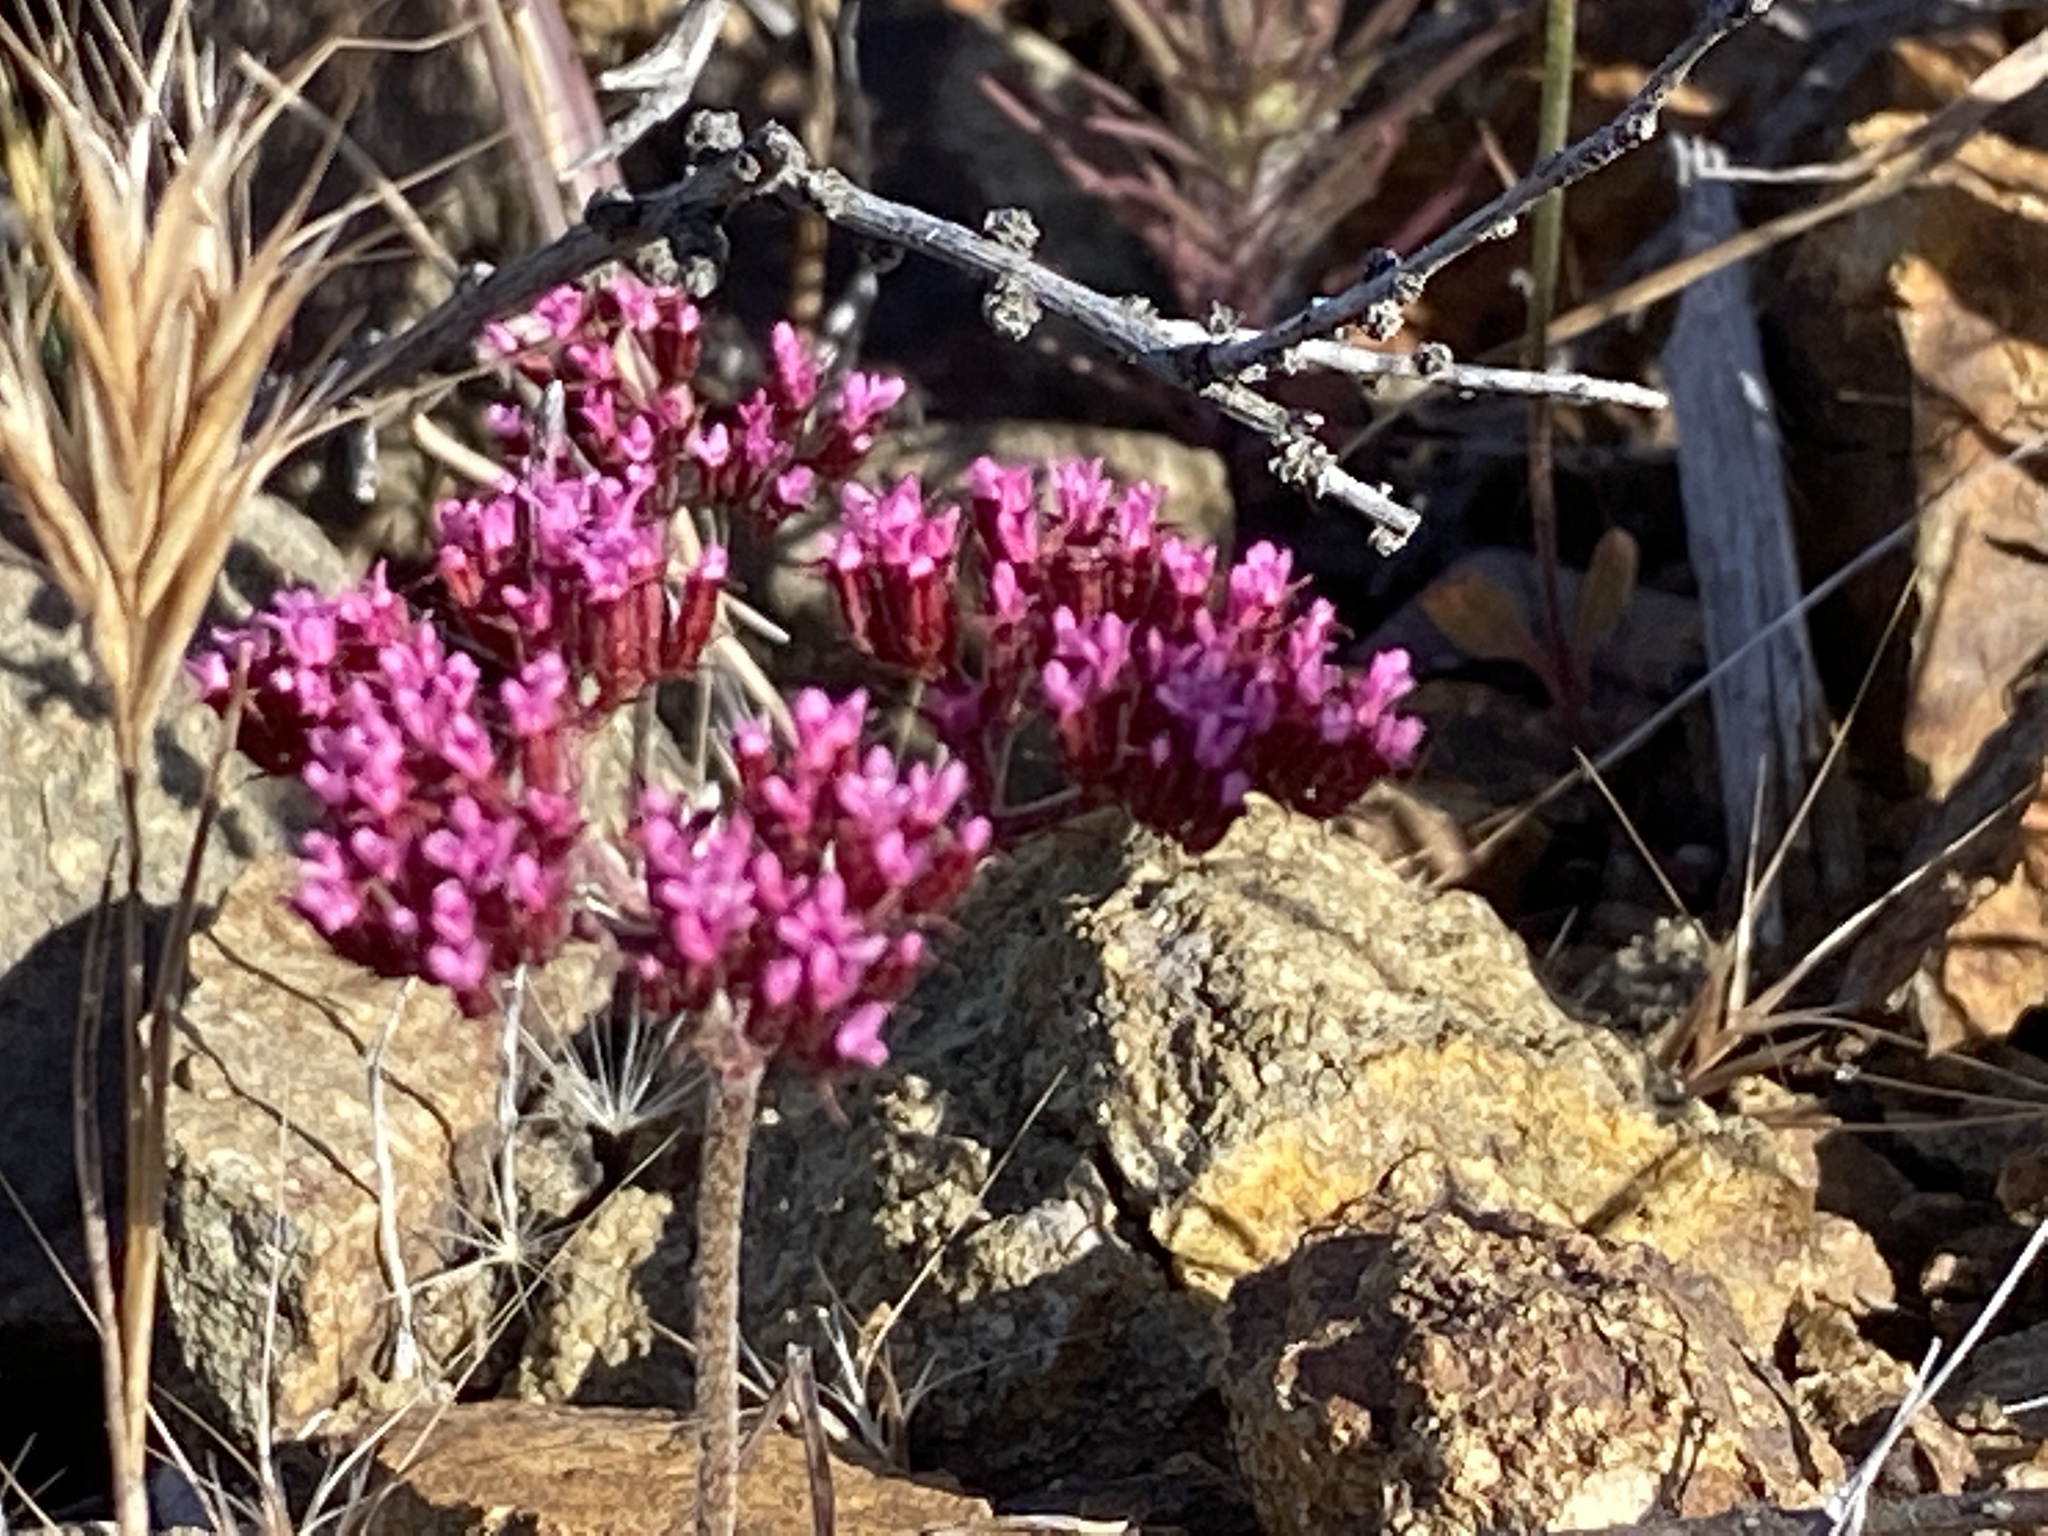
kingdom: Plantae
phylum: Tracheophyta
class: Magnoliopsida
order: Caryophyllales
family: Polygonaceae
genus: Chorizanthe
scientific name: Chorizanthe staticoides
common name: Turkish rugging
